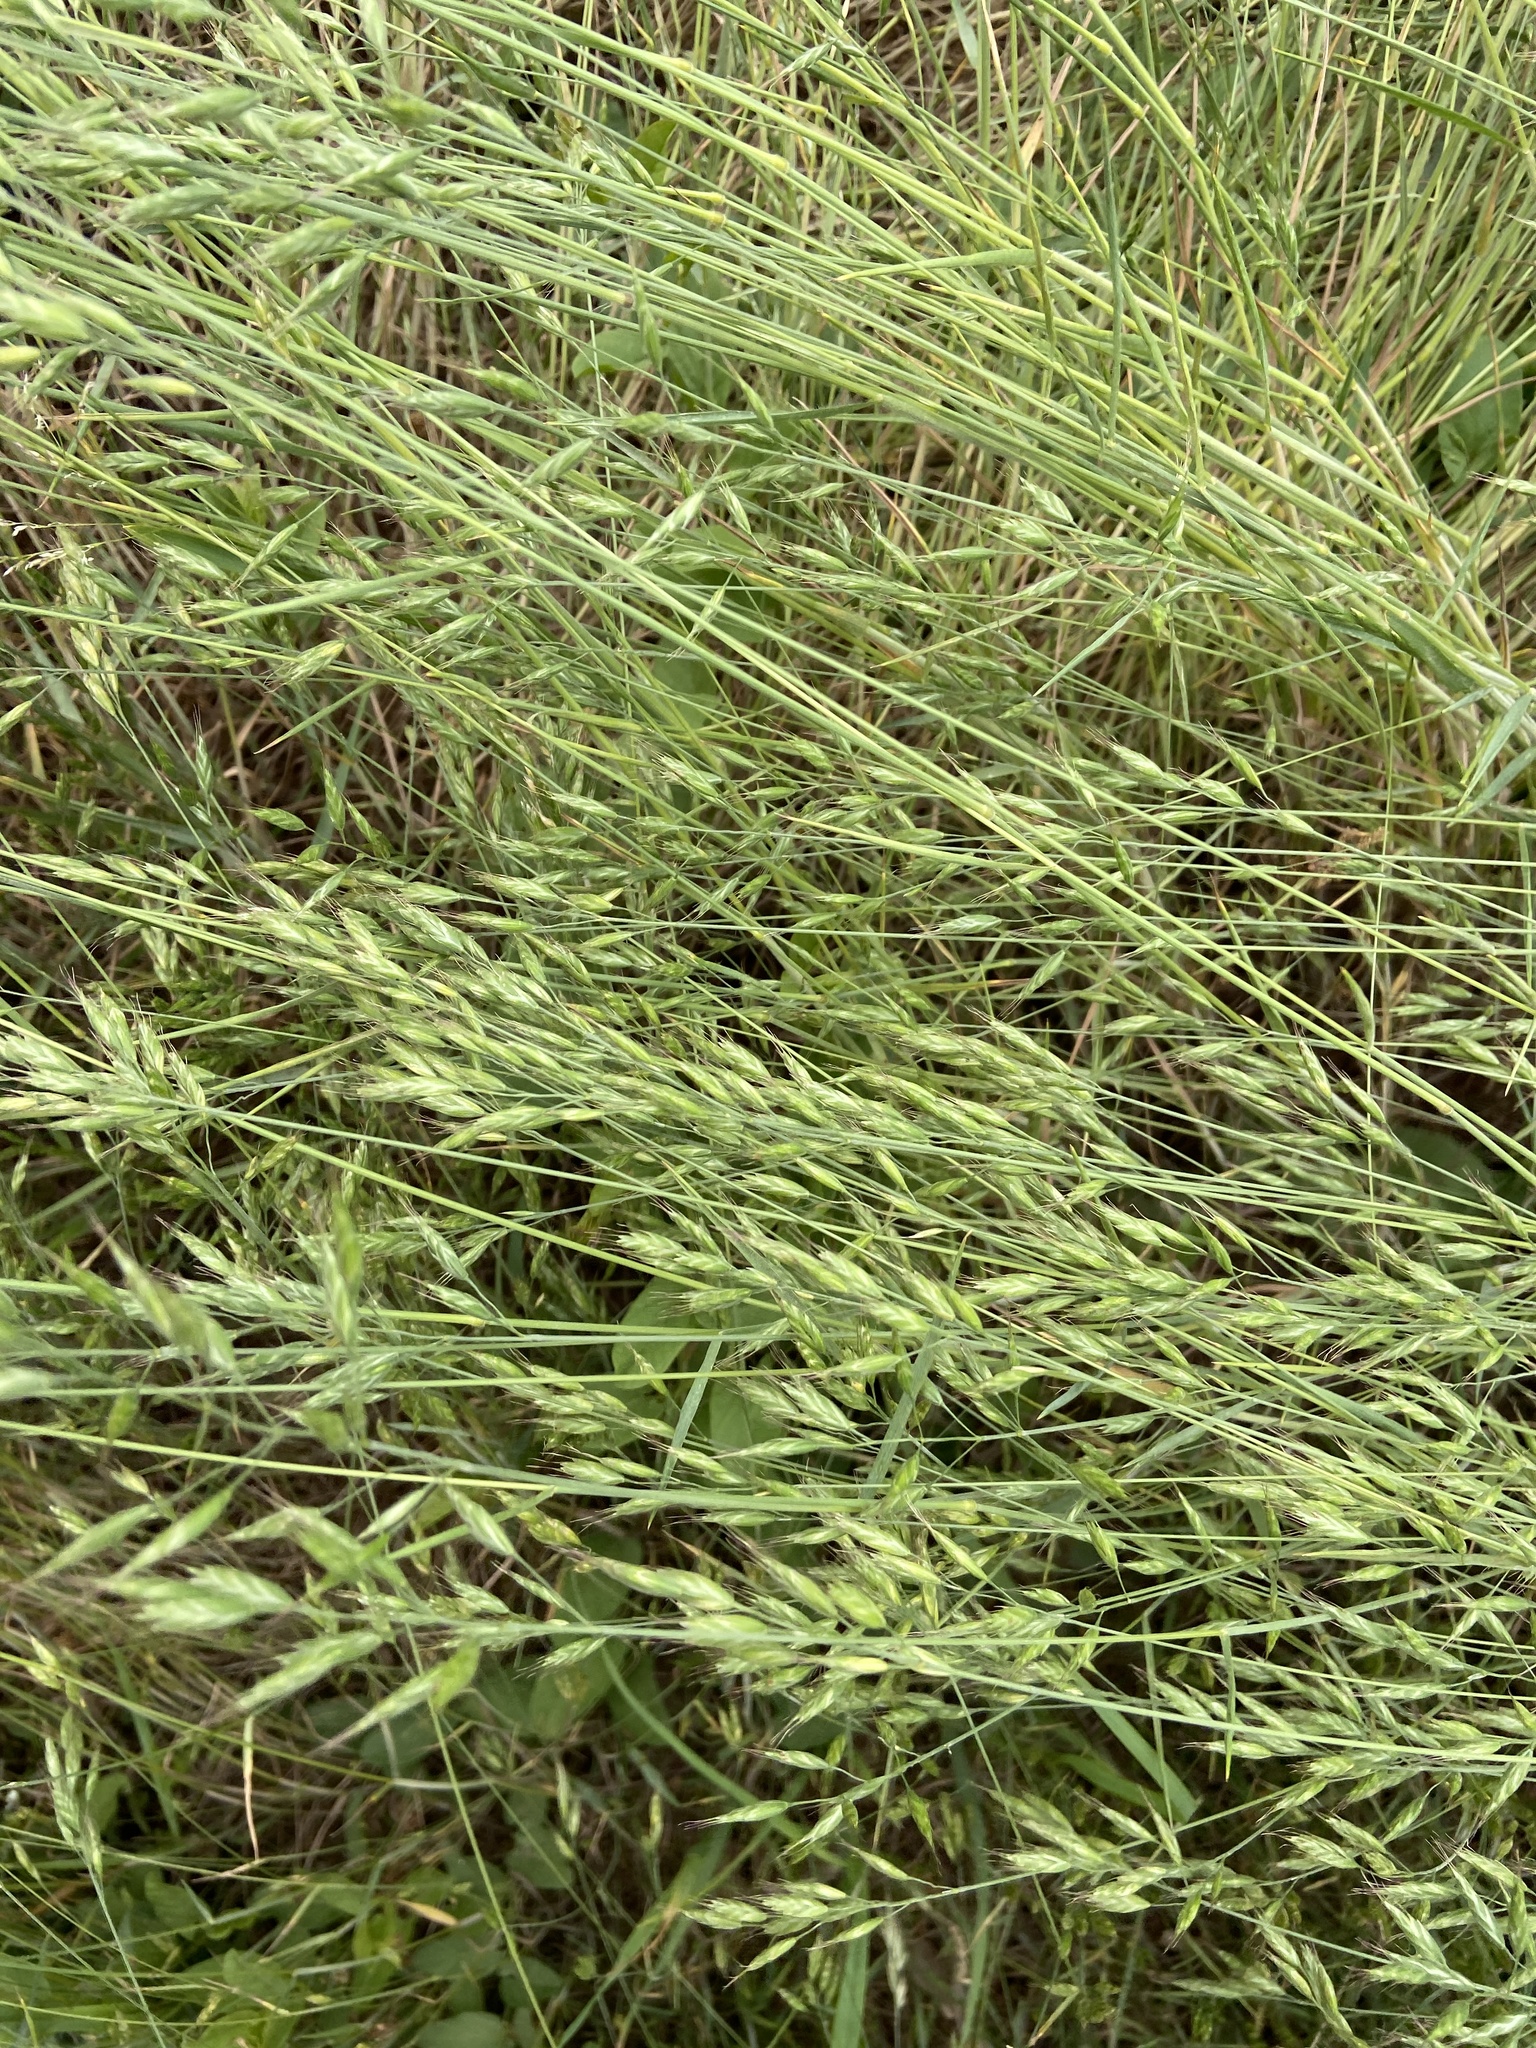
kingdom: Plantae
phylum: Tracheophyta
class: Liliopsida
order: Poales
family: Poaceae
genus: Bromus
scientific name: Bromus hordeaceus
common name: Soft brome
